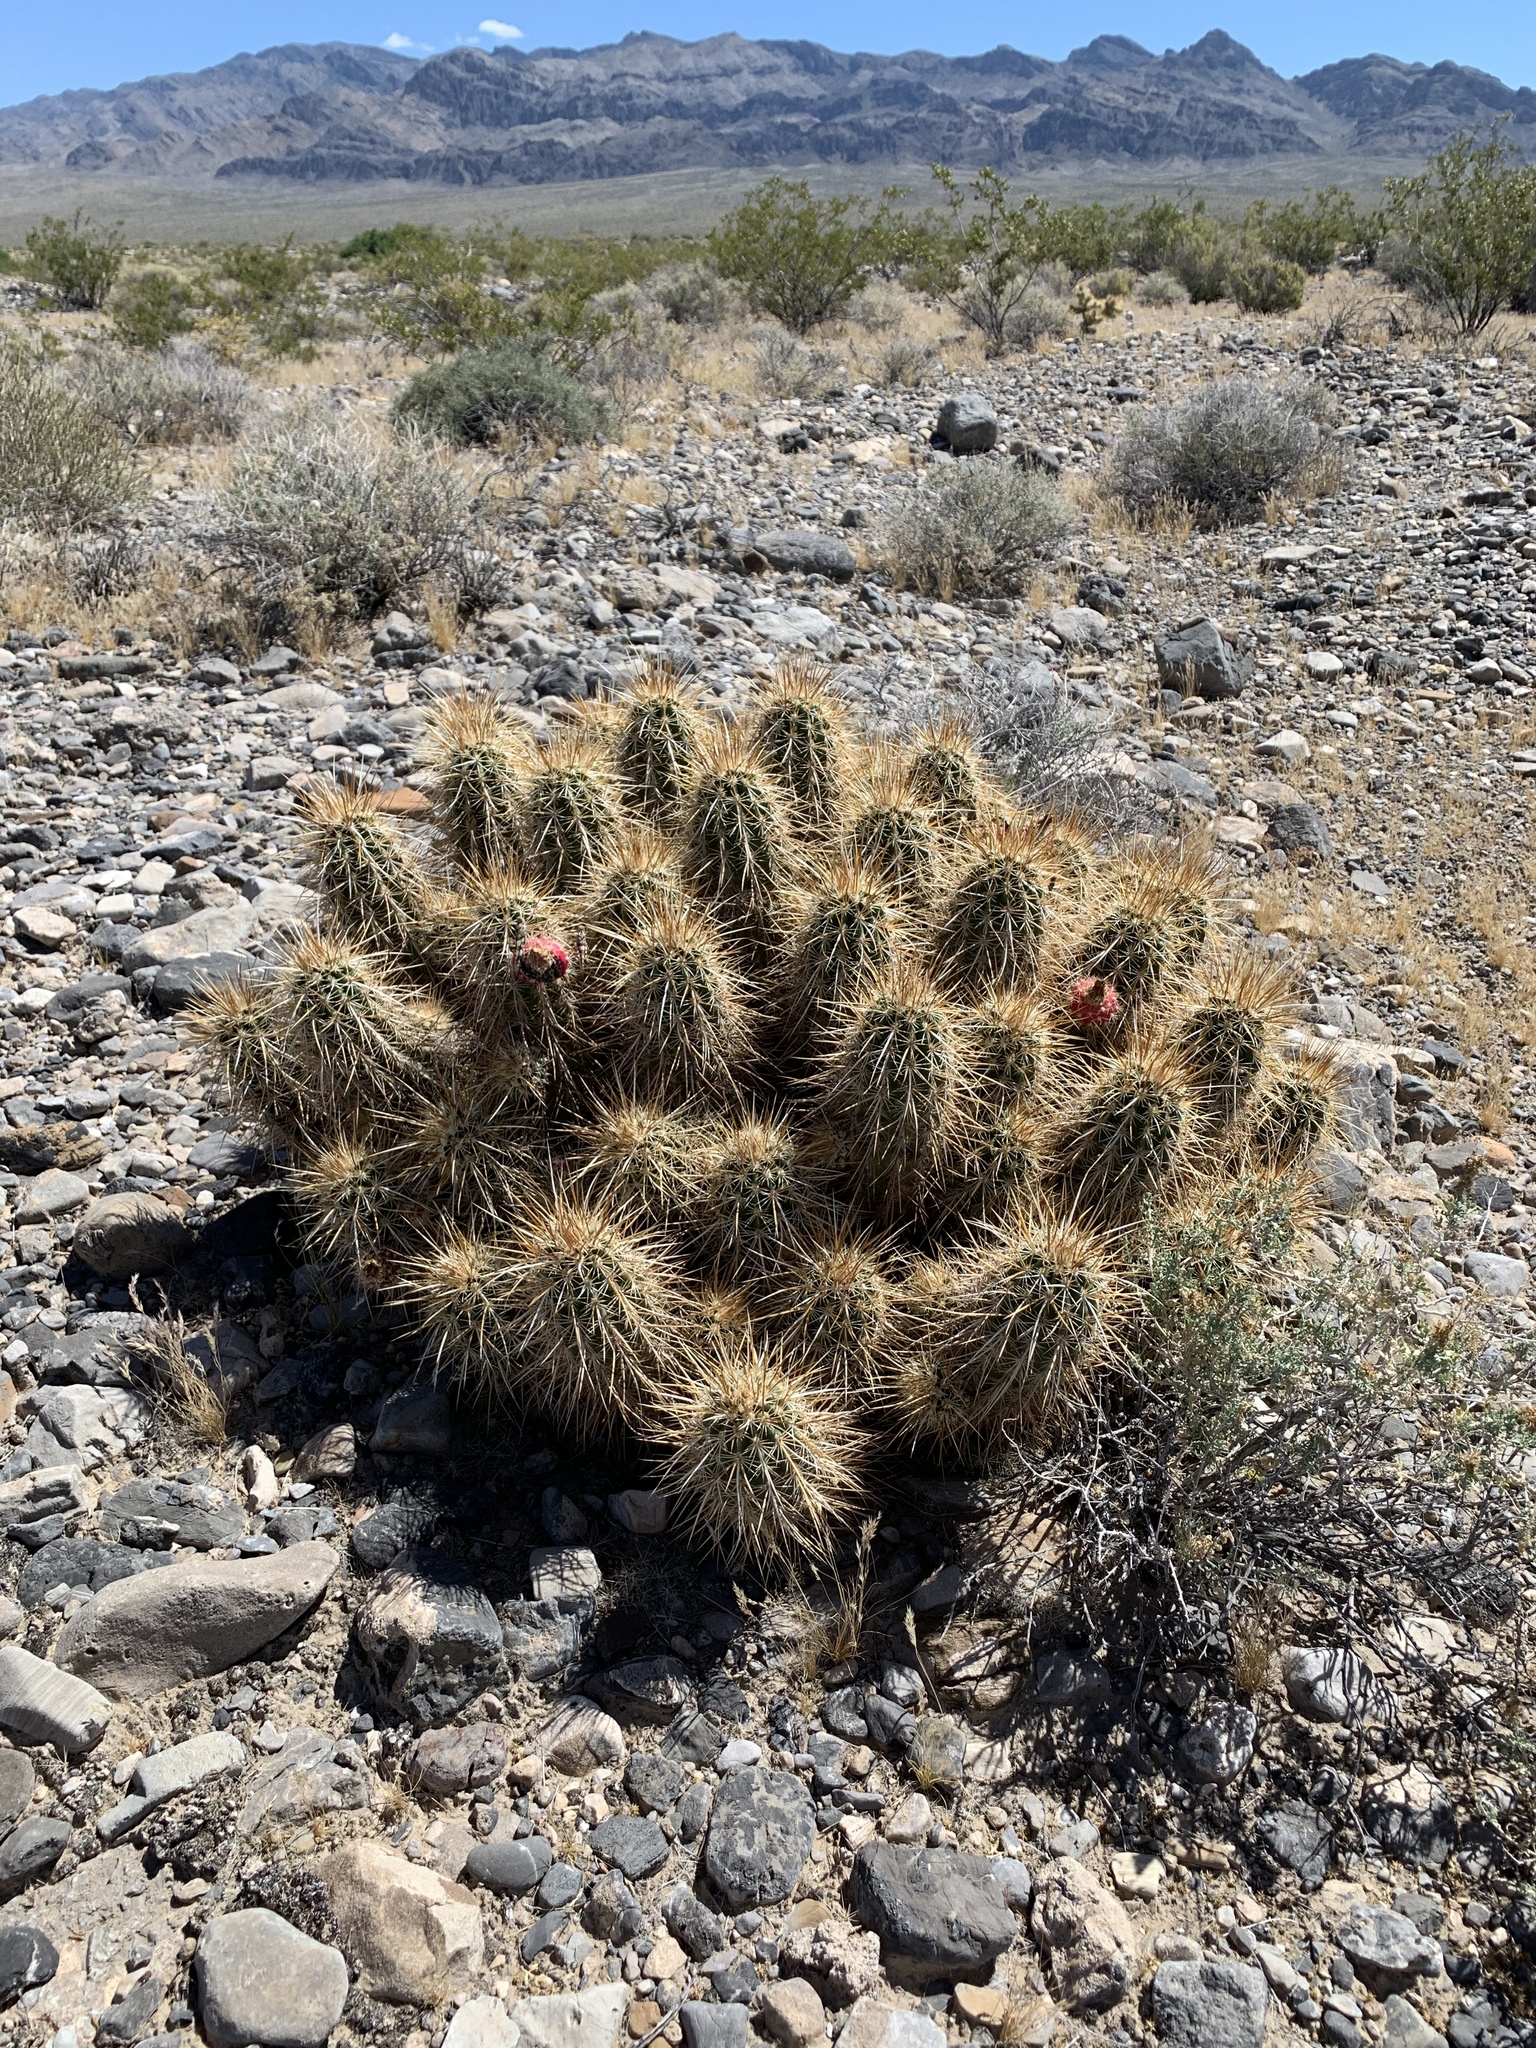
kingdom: Plantae
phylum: Tracheophyta
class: Magnoliopsida
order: Caryophyllales
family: Cactaceae
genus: Echinocereus
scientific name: Echinocereus engelmannii
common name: Engelmann's hedgehog cactus
